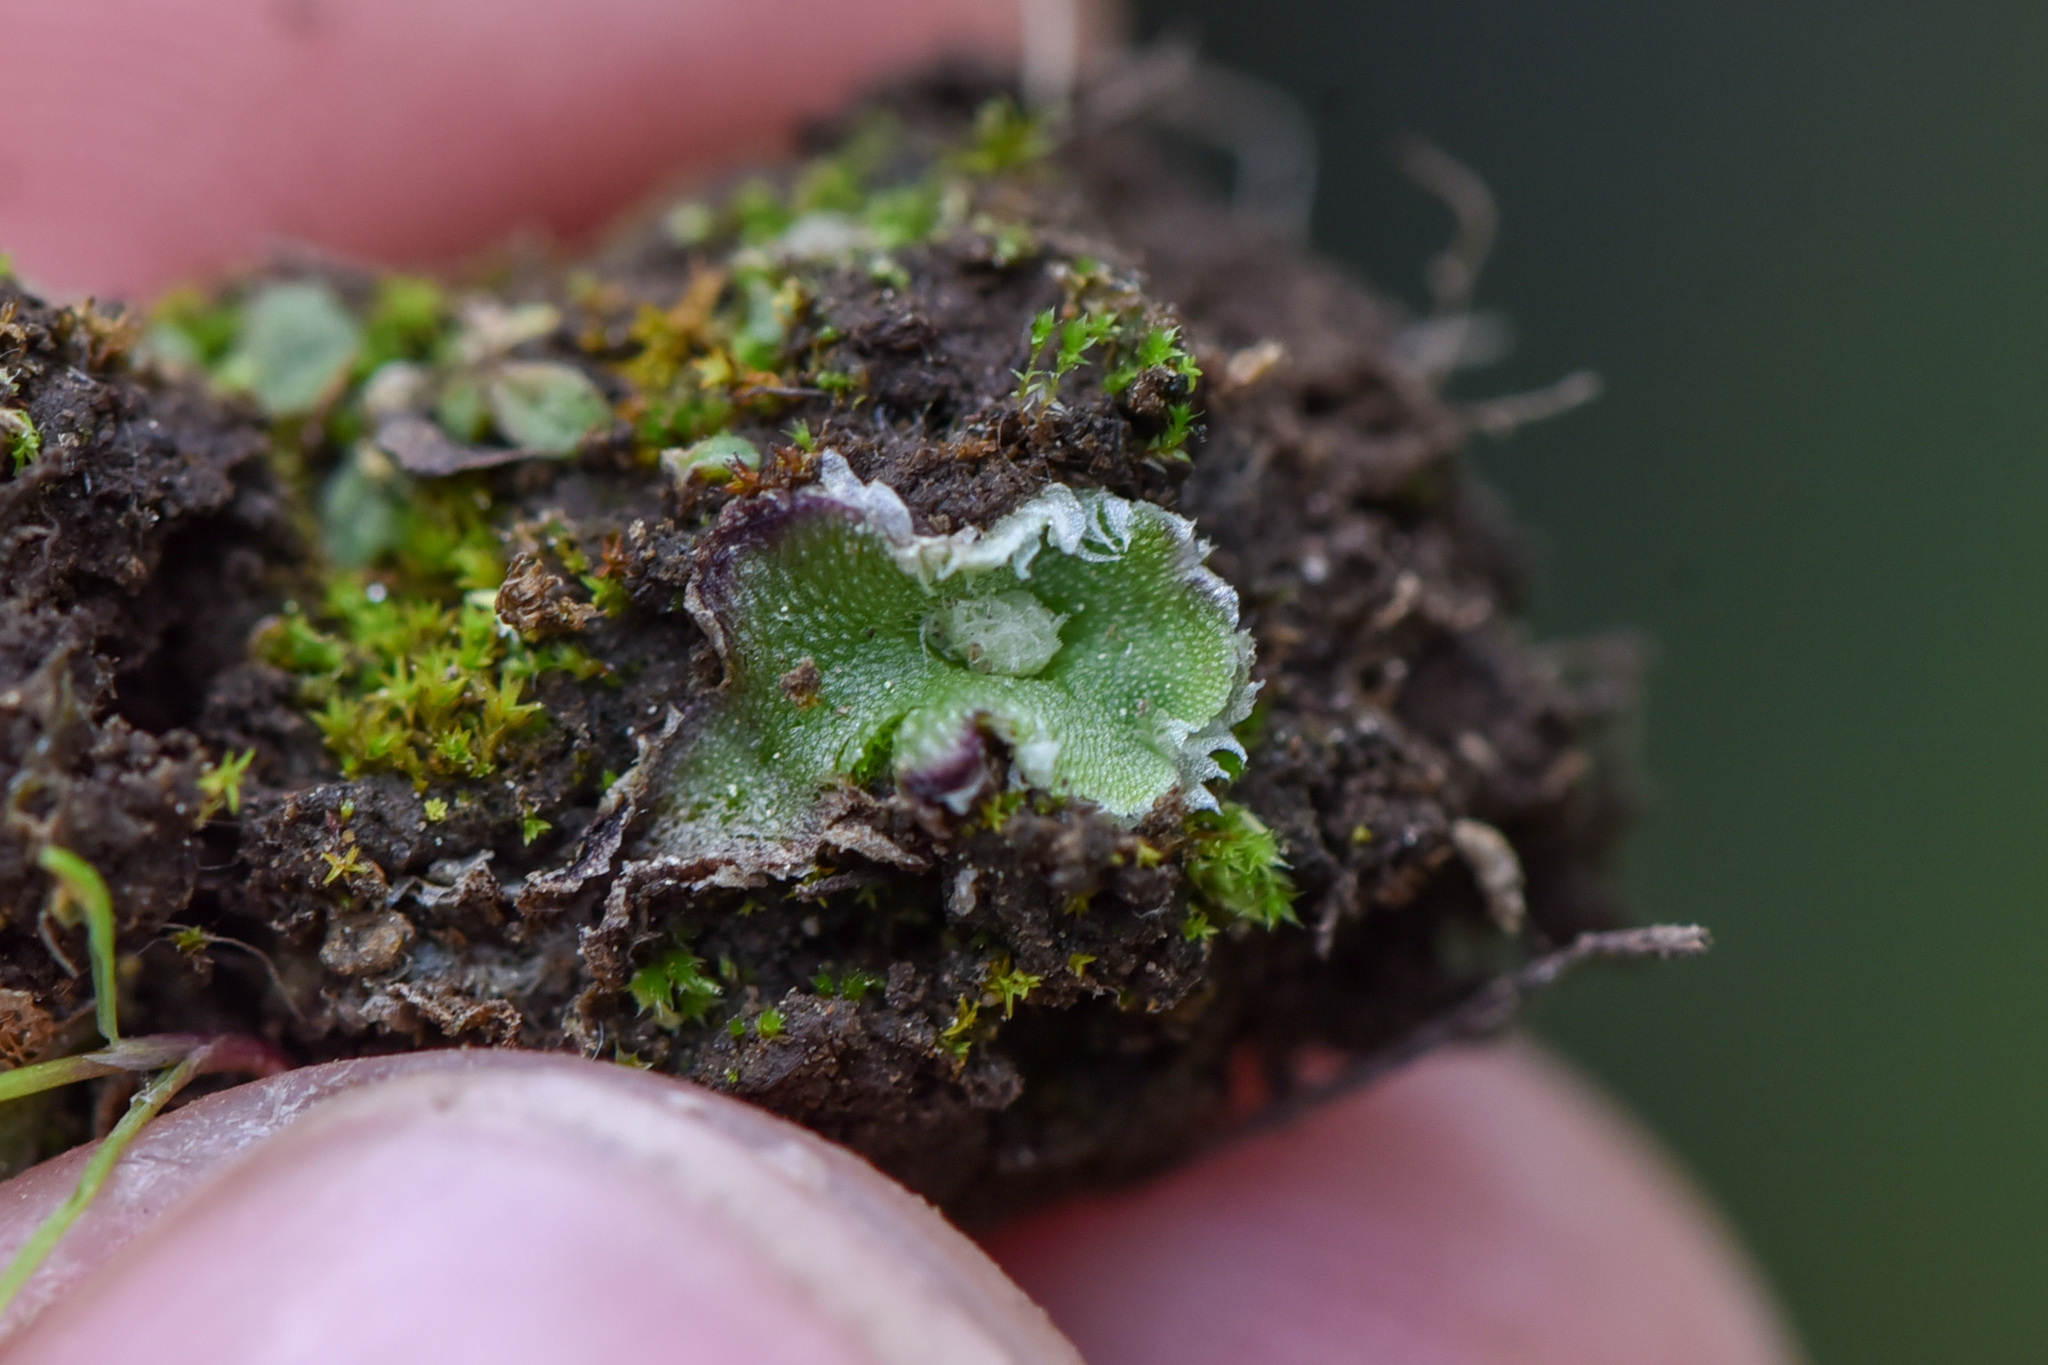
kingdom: Plantae
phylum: Marchantiophyta
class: Marchantiopsida
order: Marchantiales
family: Cleveaceae
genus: Clevea
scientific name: Clevea hyalina
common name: Hyaline liverwort
